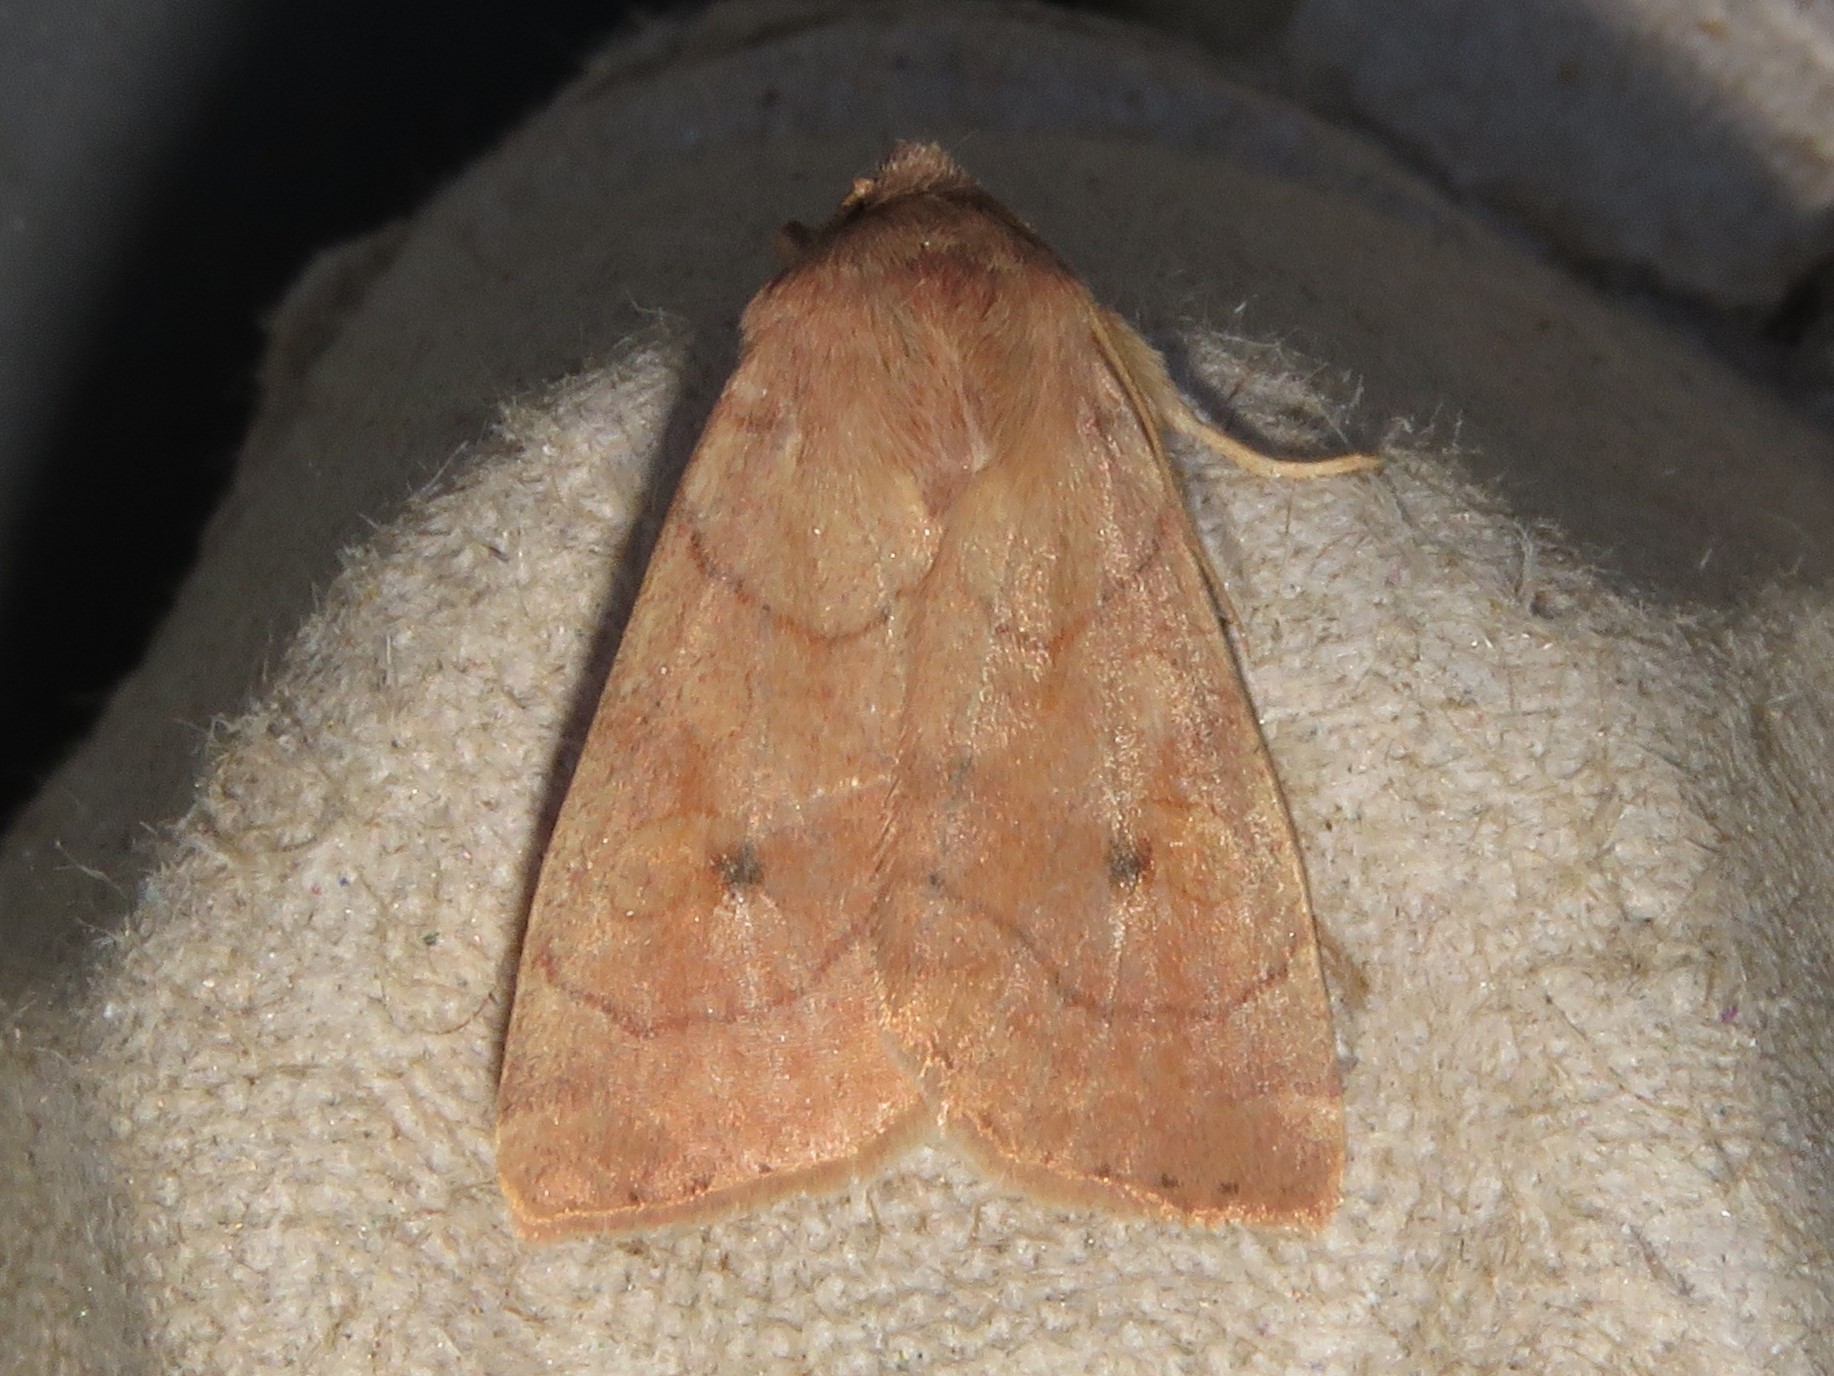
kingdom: Animalia
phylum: Arthropoda
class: Insecta
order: Lepidoptera
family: Noctuidae
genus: Enargia
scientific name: Enargia infumata
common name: Smoked sallow
